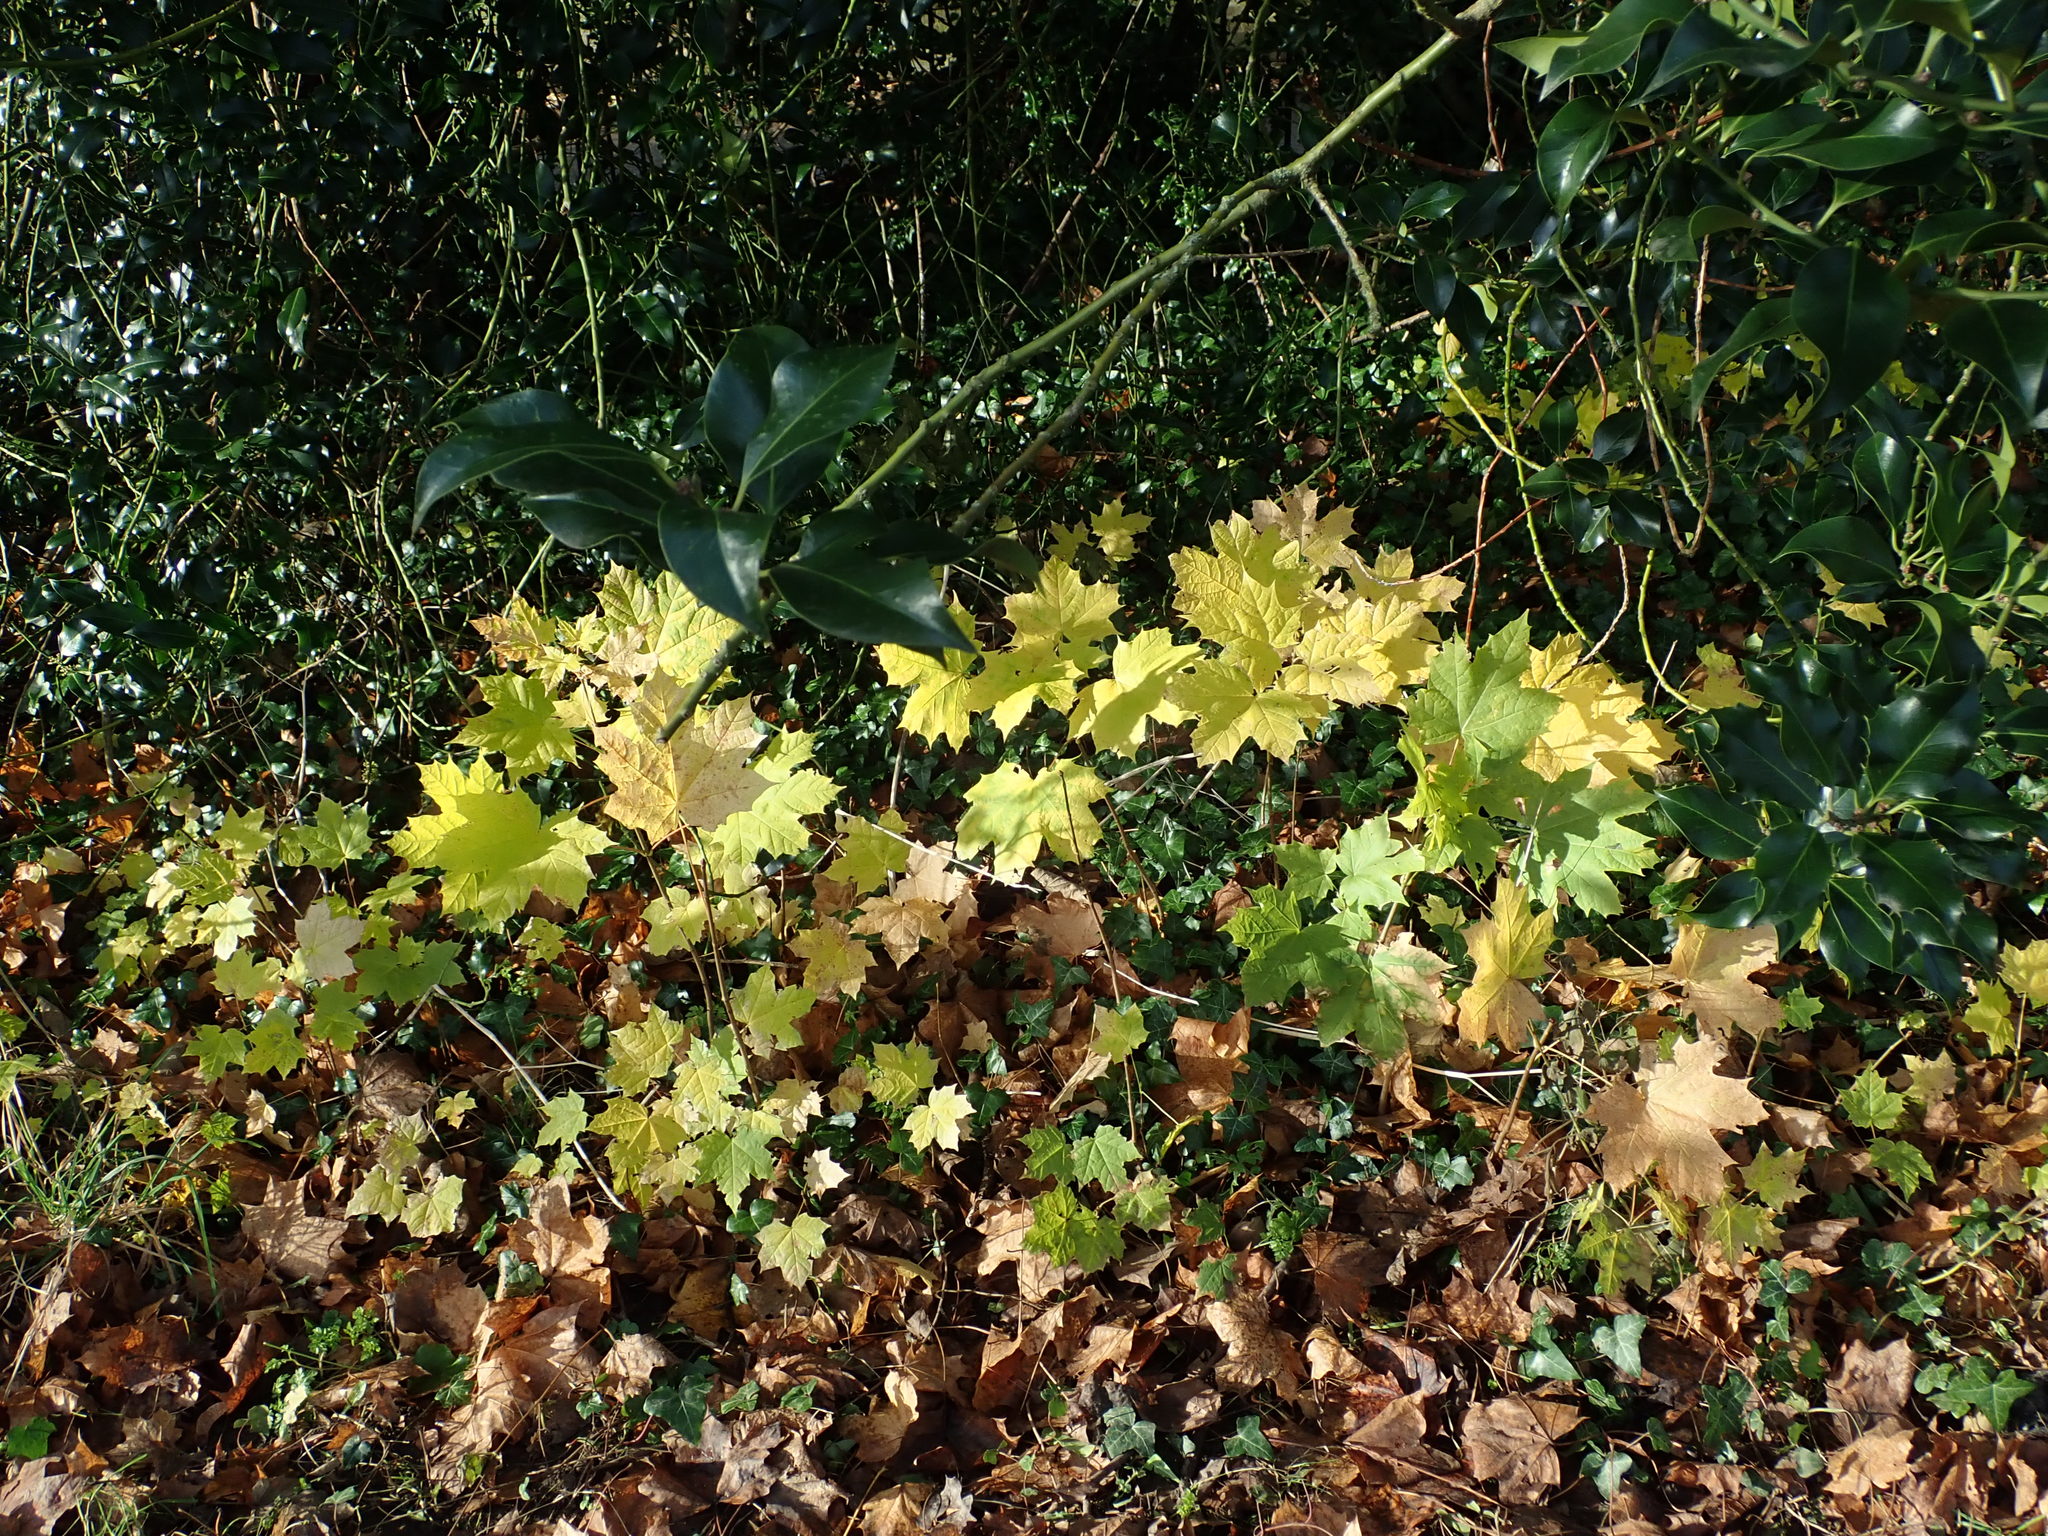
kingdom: Plantae
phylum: Tracheophyta
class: Magnoliopsida
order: Sapindales
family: Sapindaceae
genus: Acer
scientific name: Acer platanoides
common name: Norway maple
